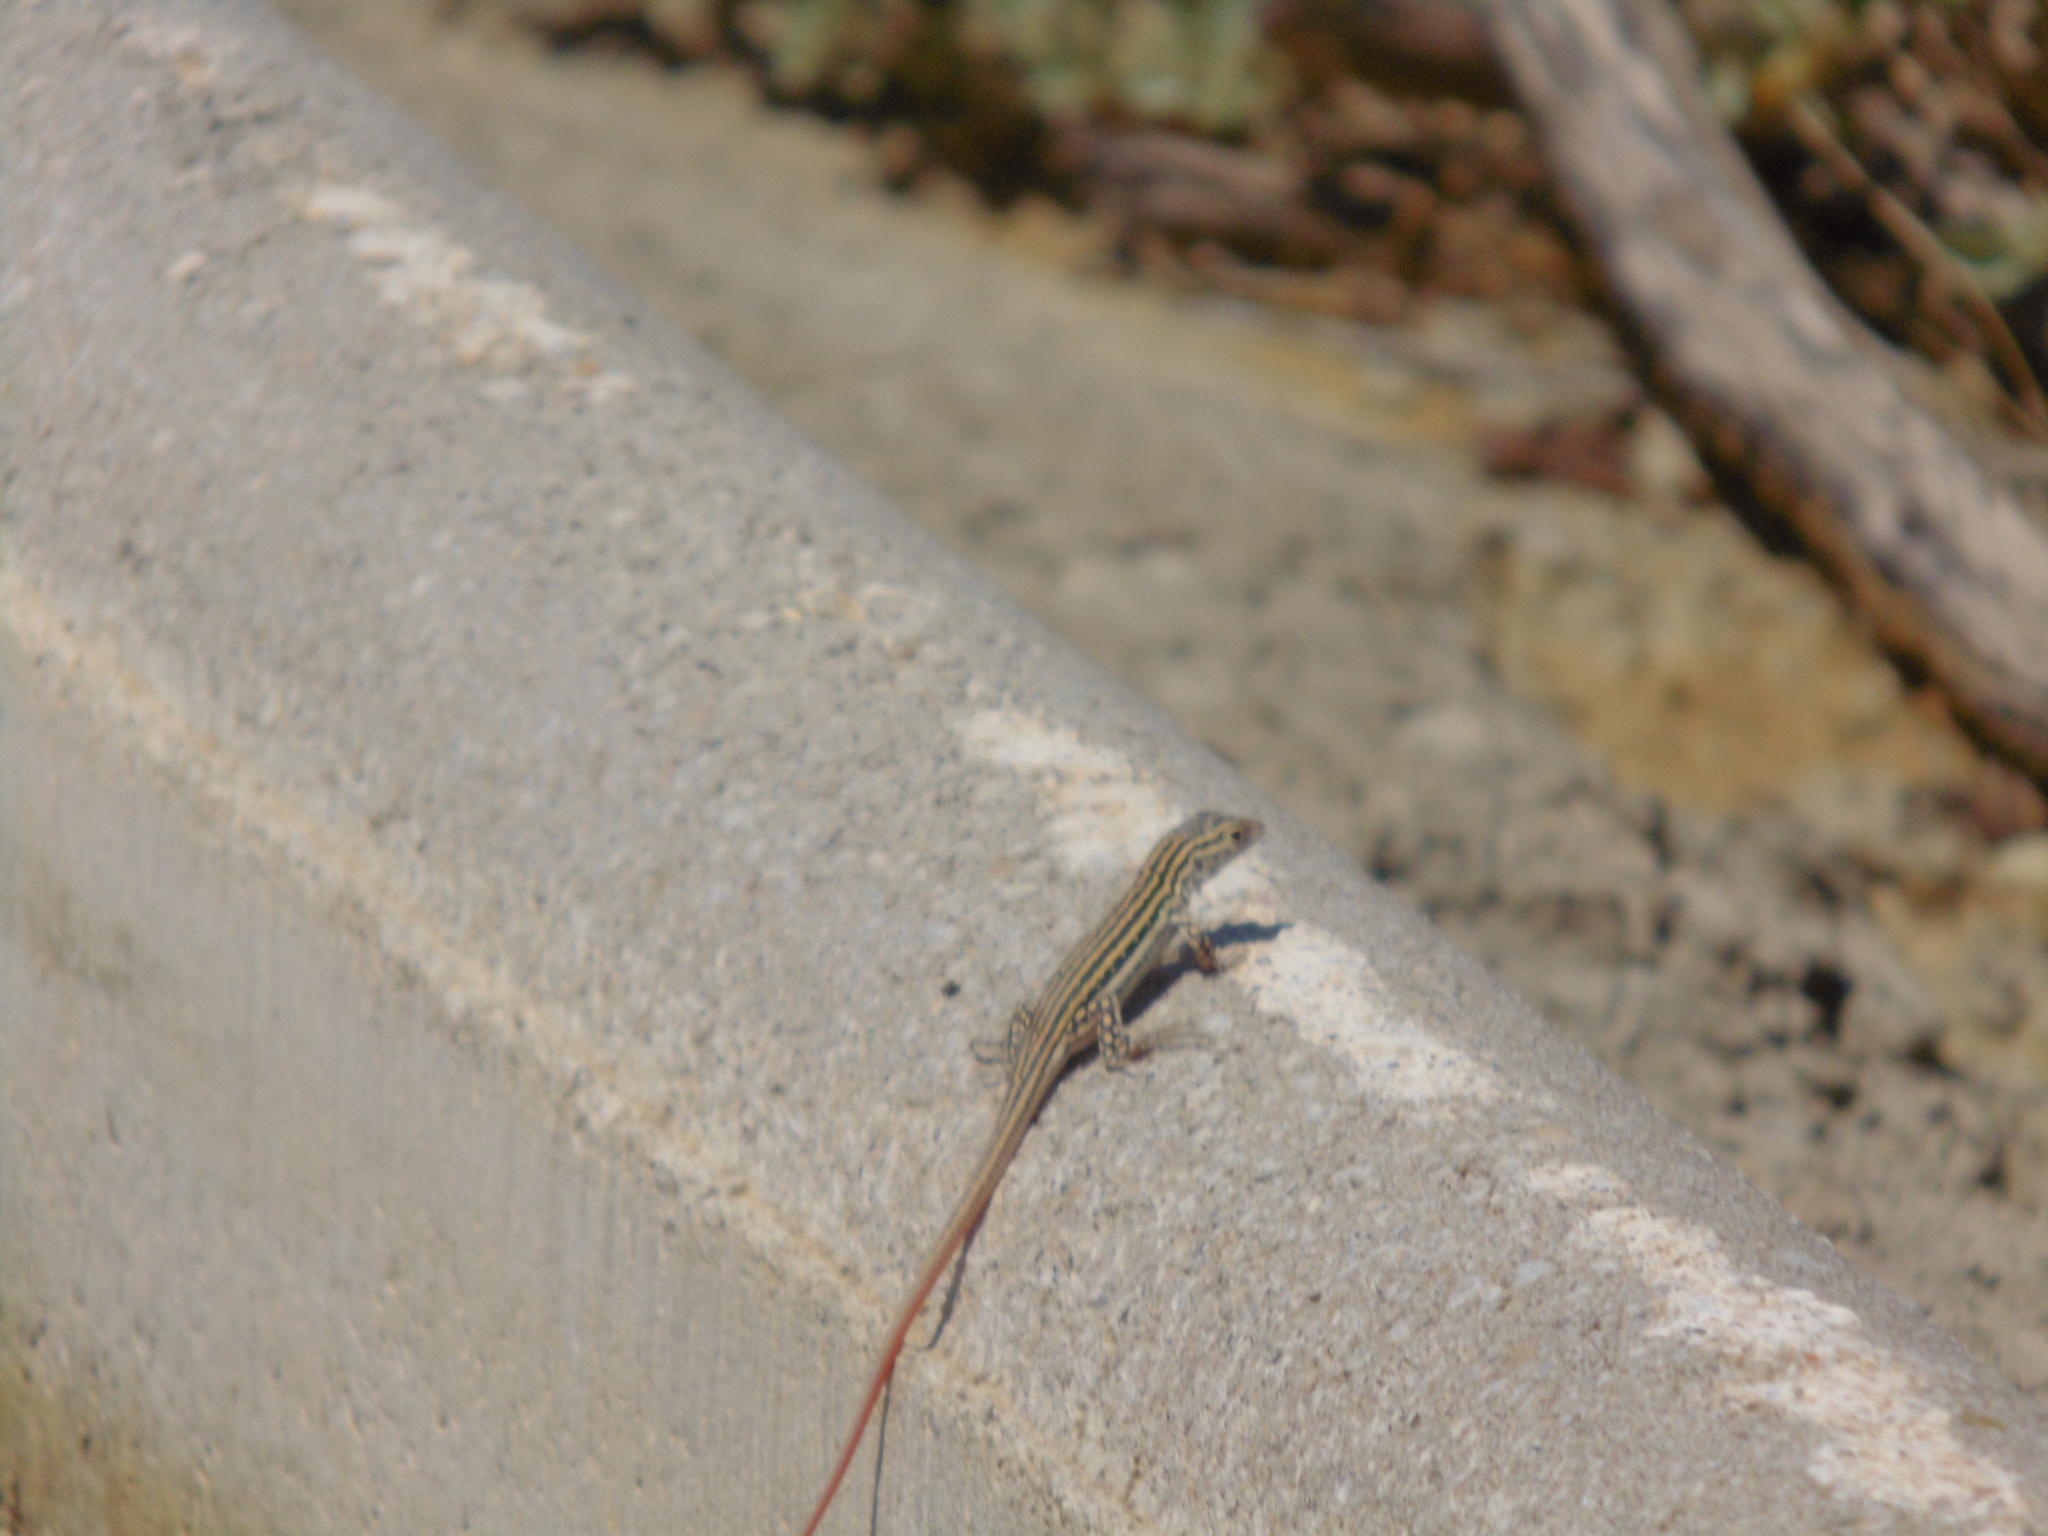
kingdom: Animalia
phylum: Chordata
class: Squamata
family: Lacertidae
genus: Acanthodactylus
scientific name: Acanthodactylus erythrurus
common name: Spiny-footed lizard
